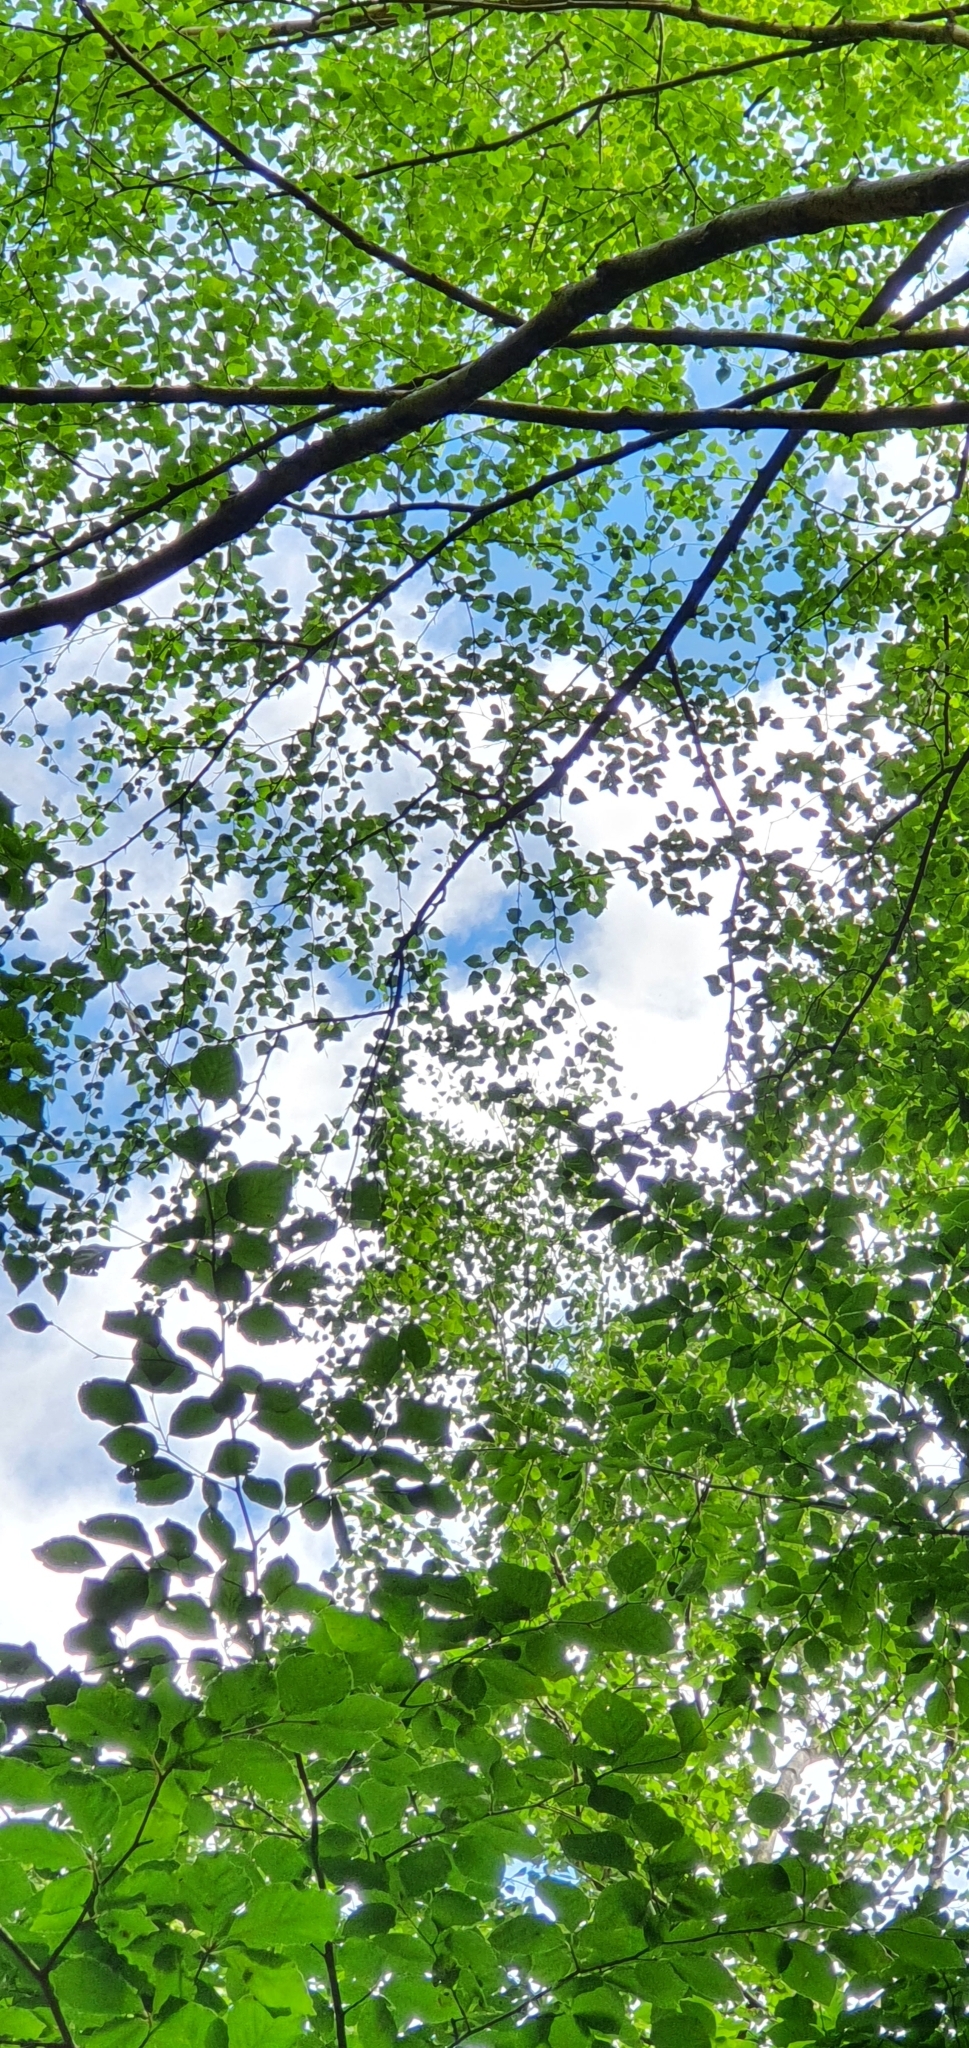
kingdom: Plantae
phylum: Tracheophyta
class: Magnoliopsida
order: Fagales
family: Betulaceae
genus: Betula
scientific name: Betula pendula
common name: Silver birch
